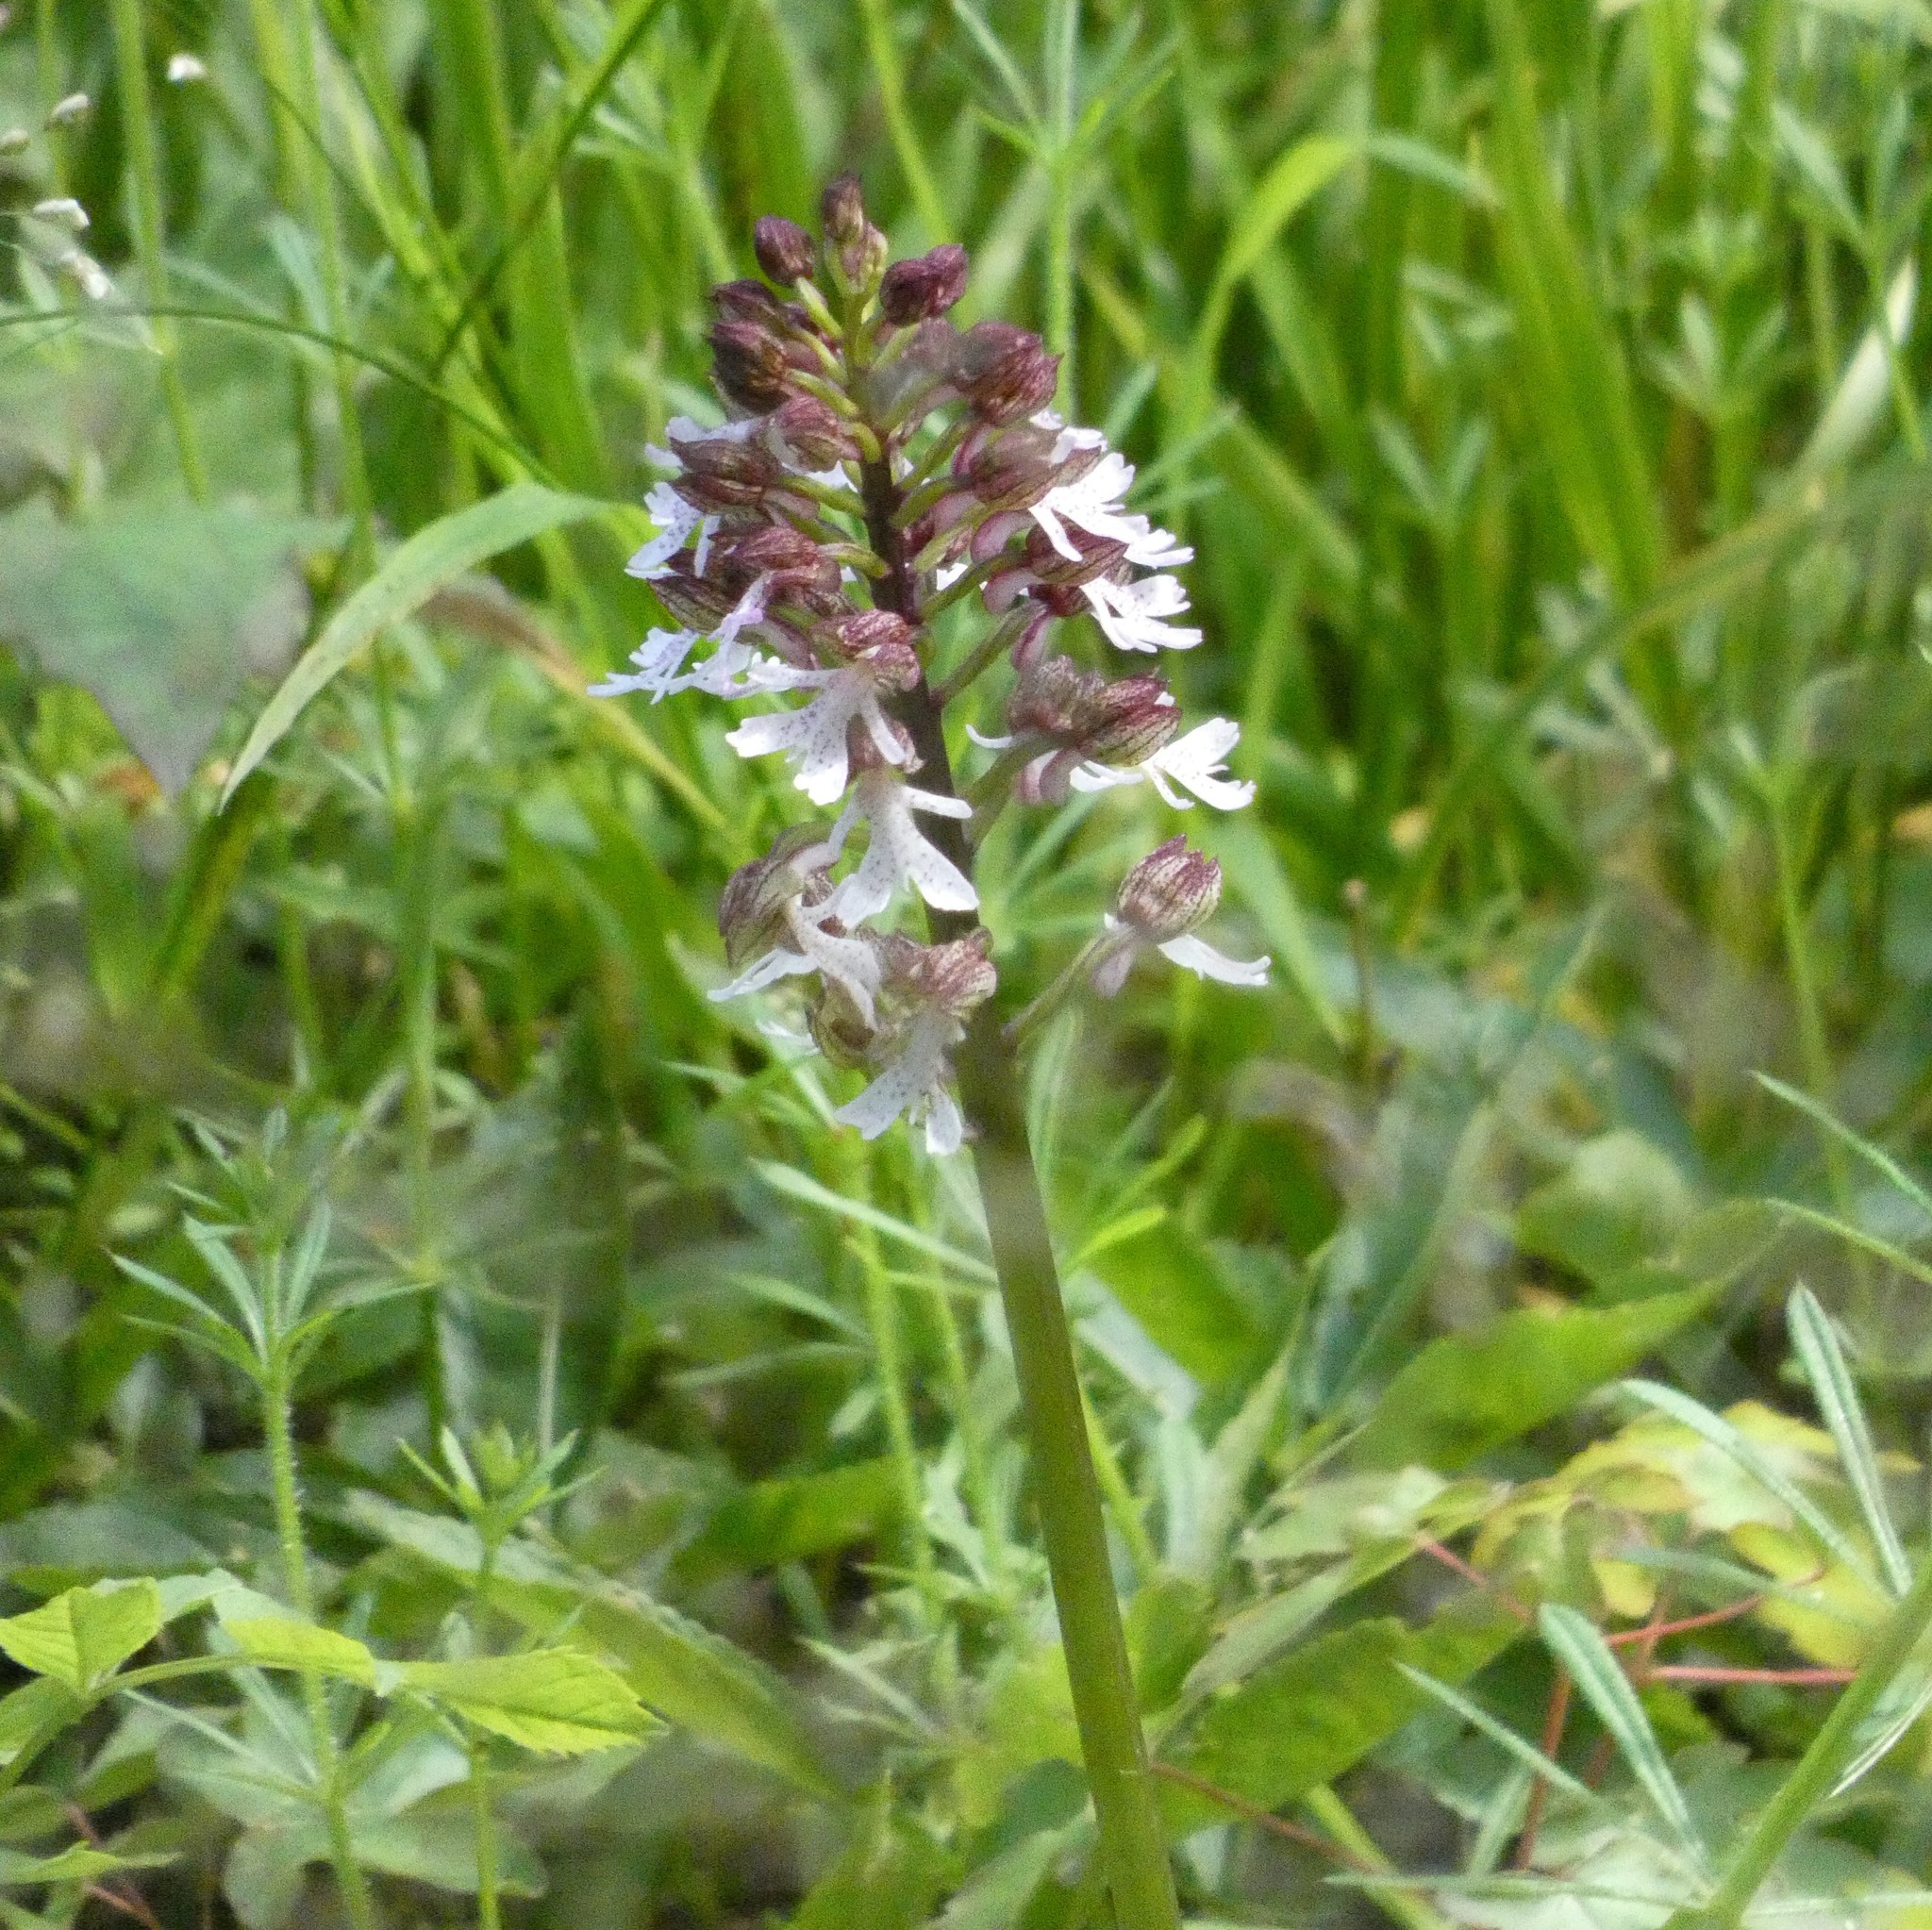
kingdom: Plantae
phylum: Tracheophyta
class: Liliopsida
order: Asparagales
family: Orchidaceae
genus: Orchis
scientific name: Orchis purpurea
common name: Lady orchid
